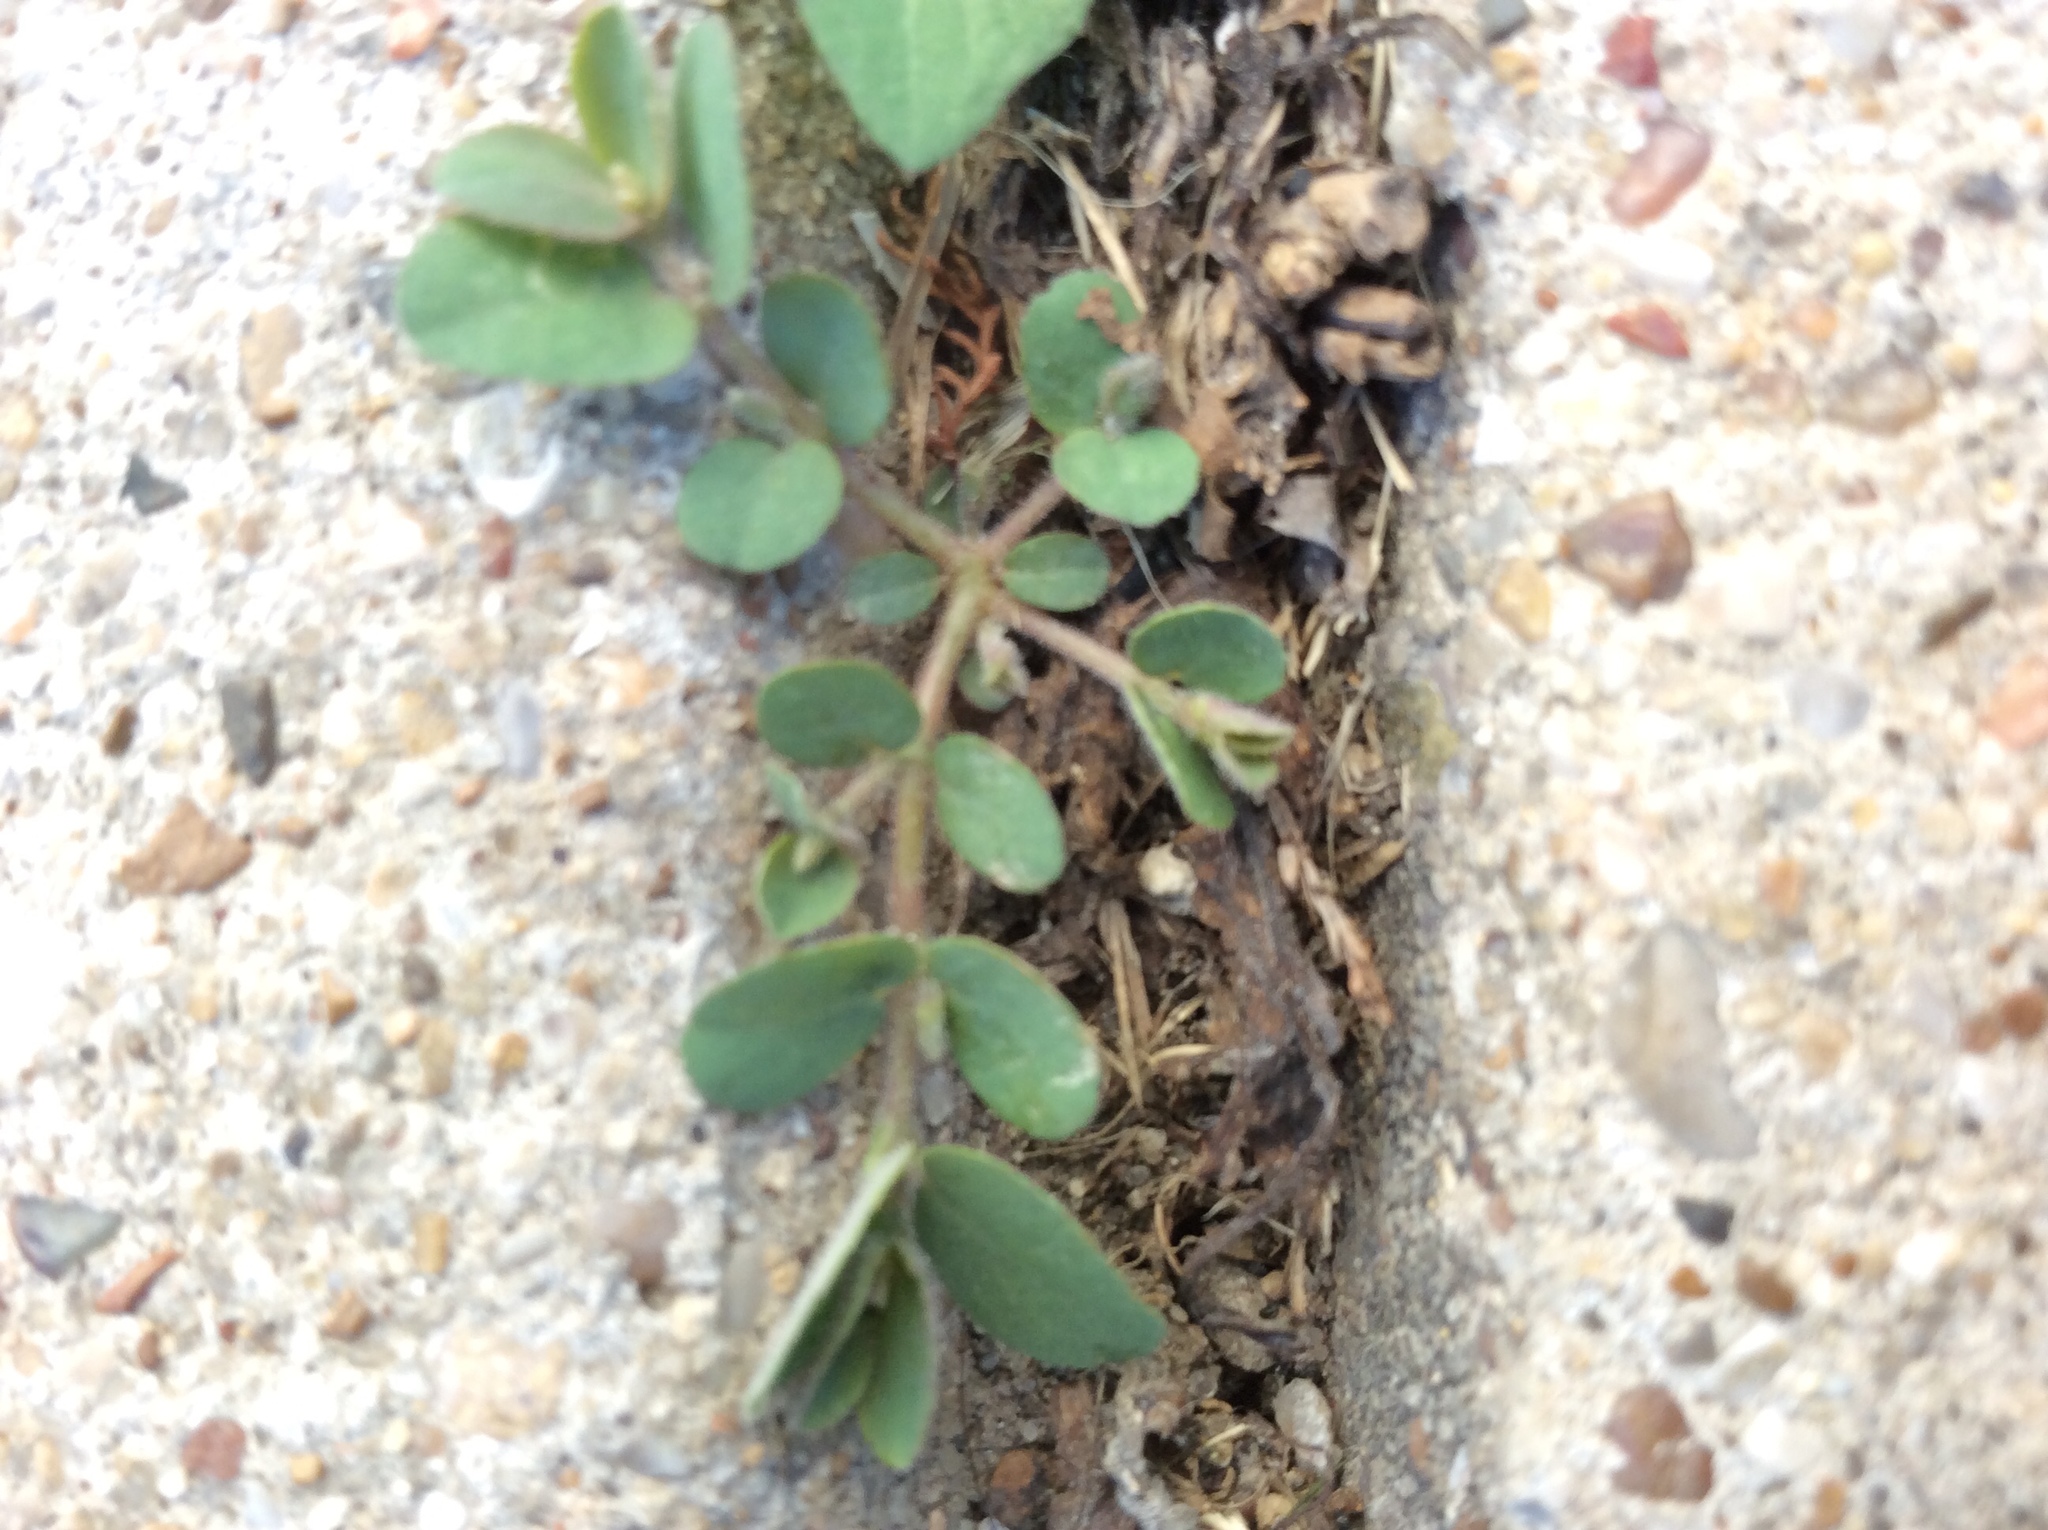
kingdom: Plantae
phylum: Tracheophyta
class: Magnoliopsida
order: Malpighiales
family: Euphorbiaceae
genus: Euphorbia
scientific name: Euphorbia prostrata
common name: Prostrate sandmat
